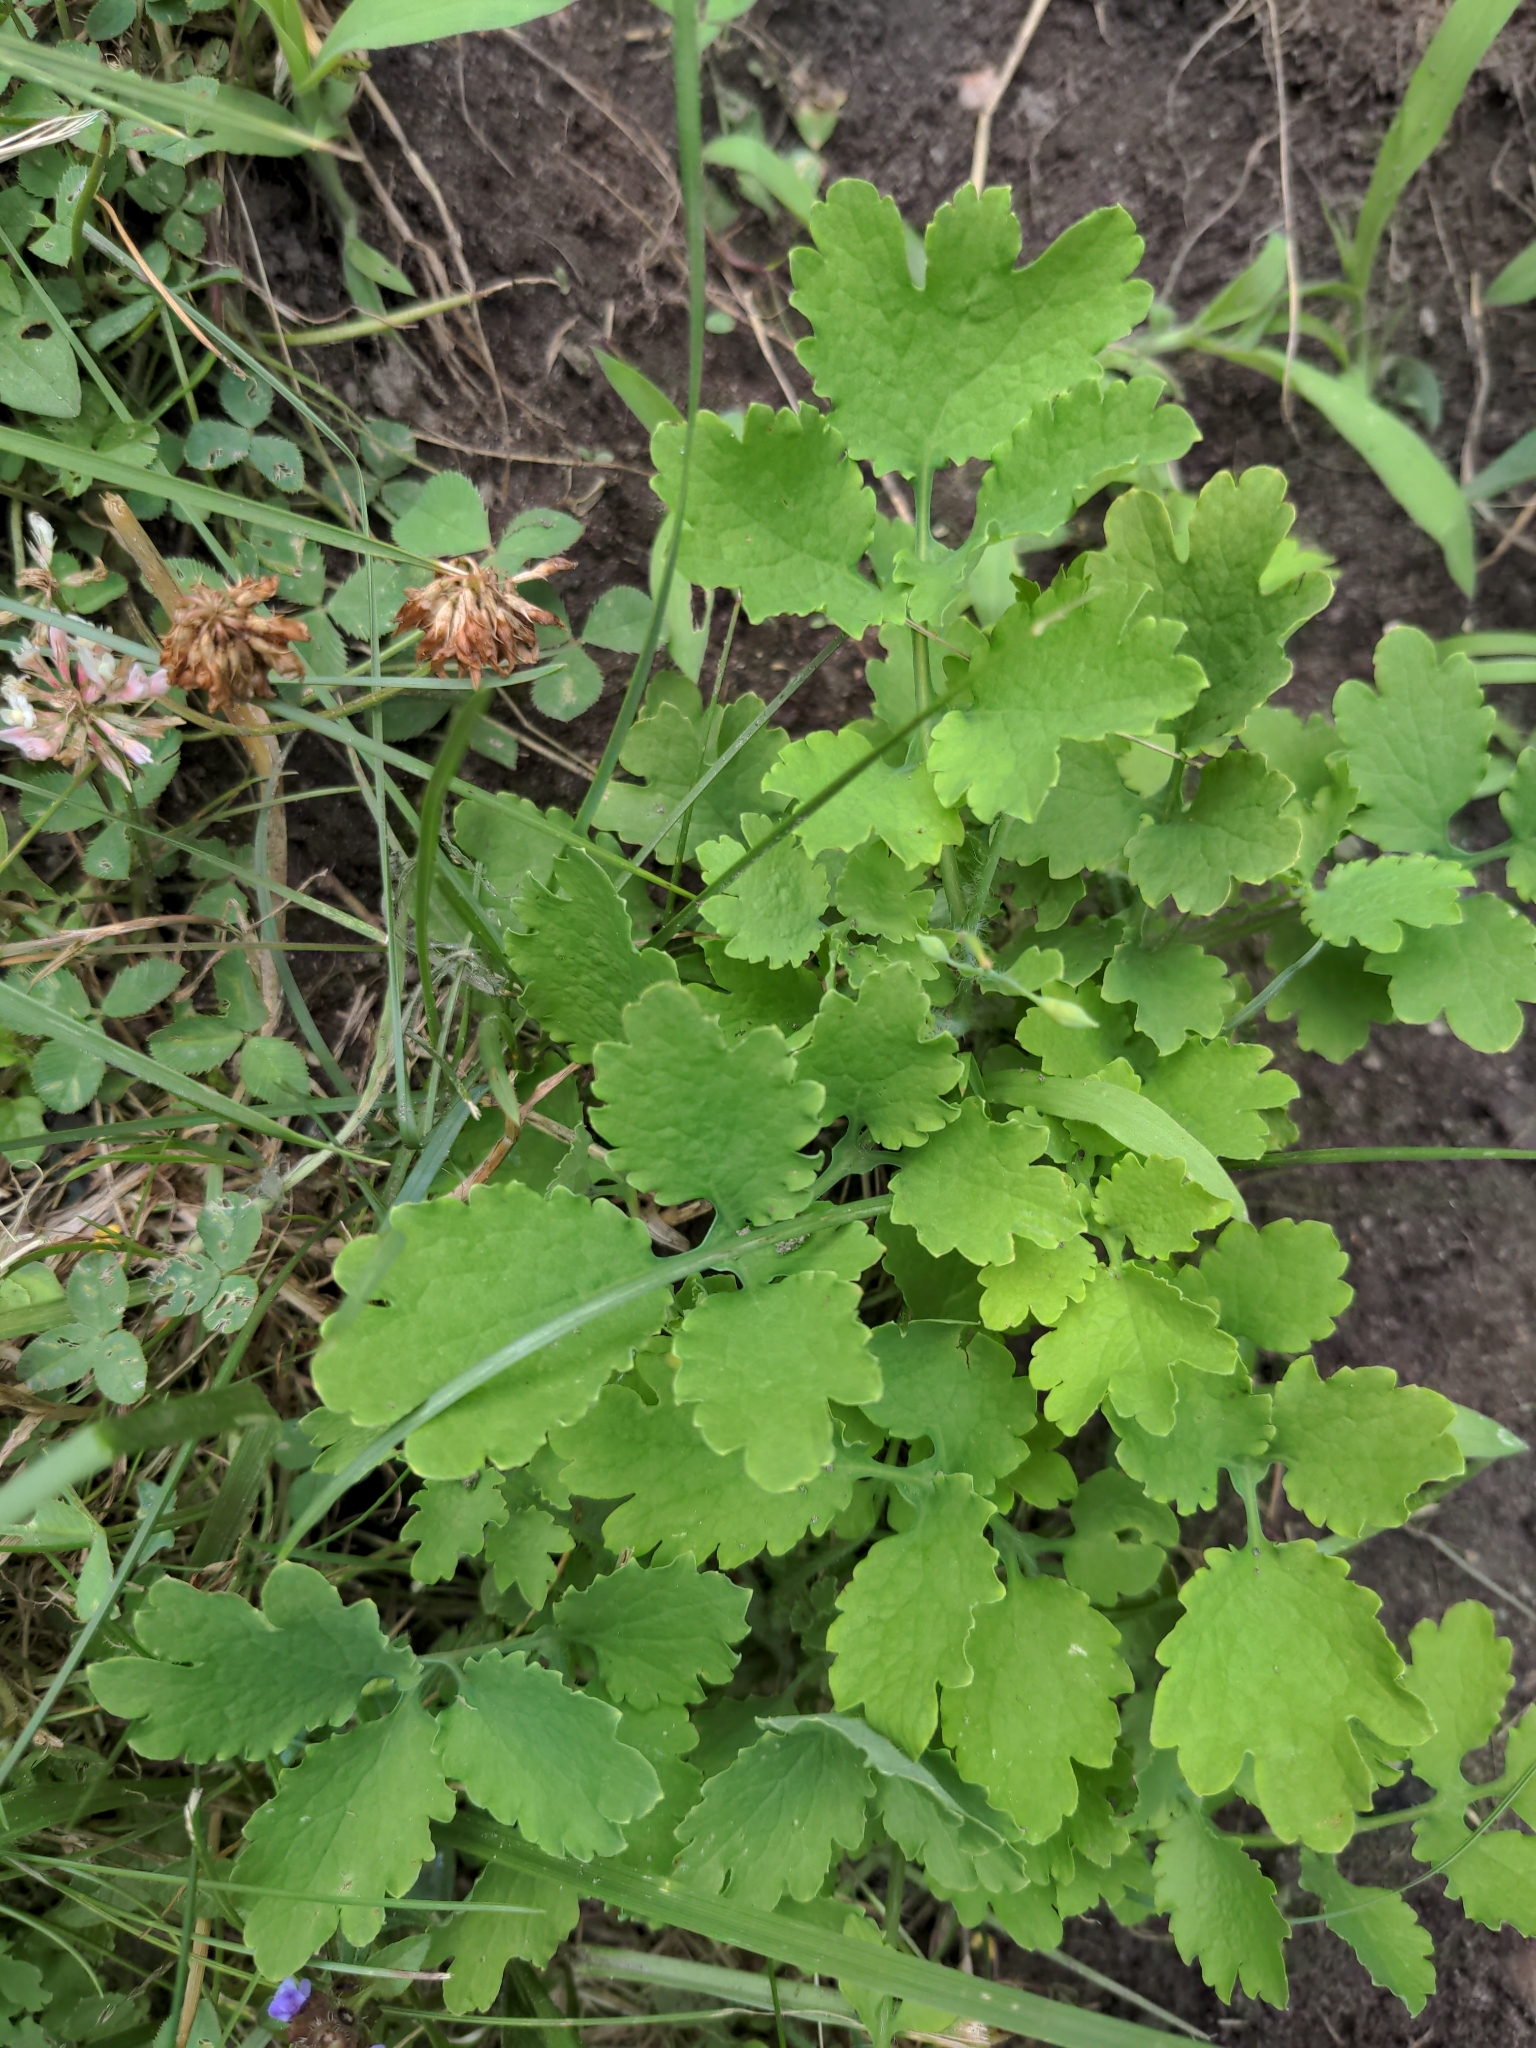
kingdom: Plantae
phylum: Tracheophyta
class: Magnoliopsida
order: Ranunculales
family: Papaveraceae
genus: Chelidonium
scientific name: Chelidonium majus
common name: Greater celandine
